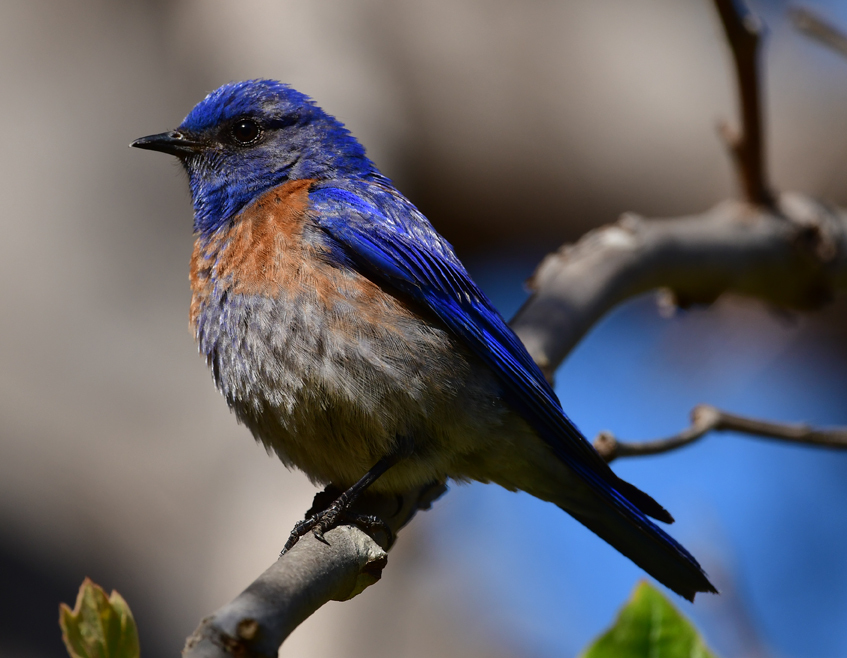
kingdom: Animalia
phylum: Chordata
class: Aves
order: Passeriformes
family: Turdidae
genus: Sialia
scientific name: Sialia mexicana
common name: Western bluebird
